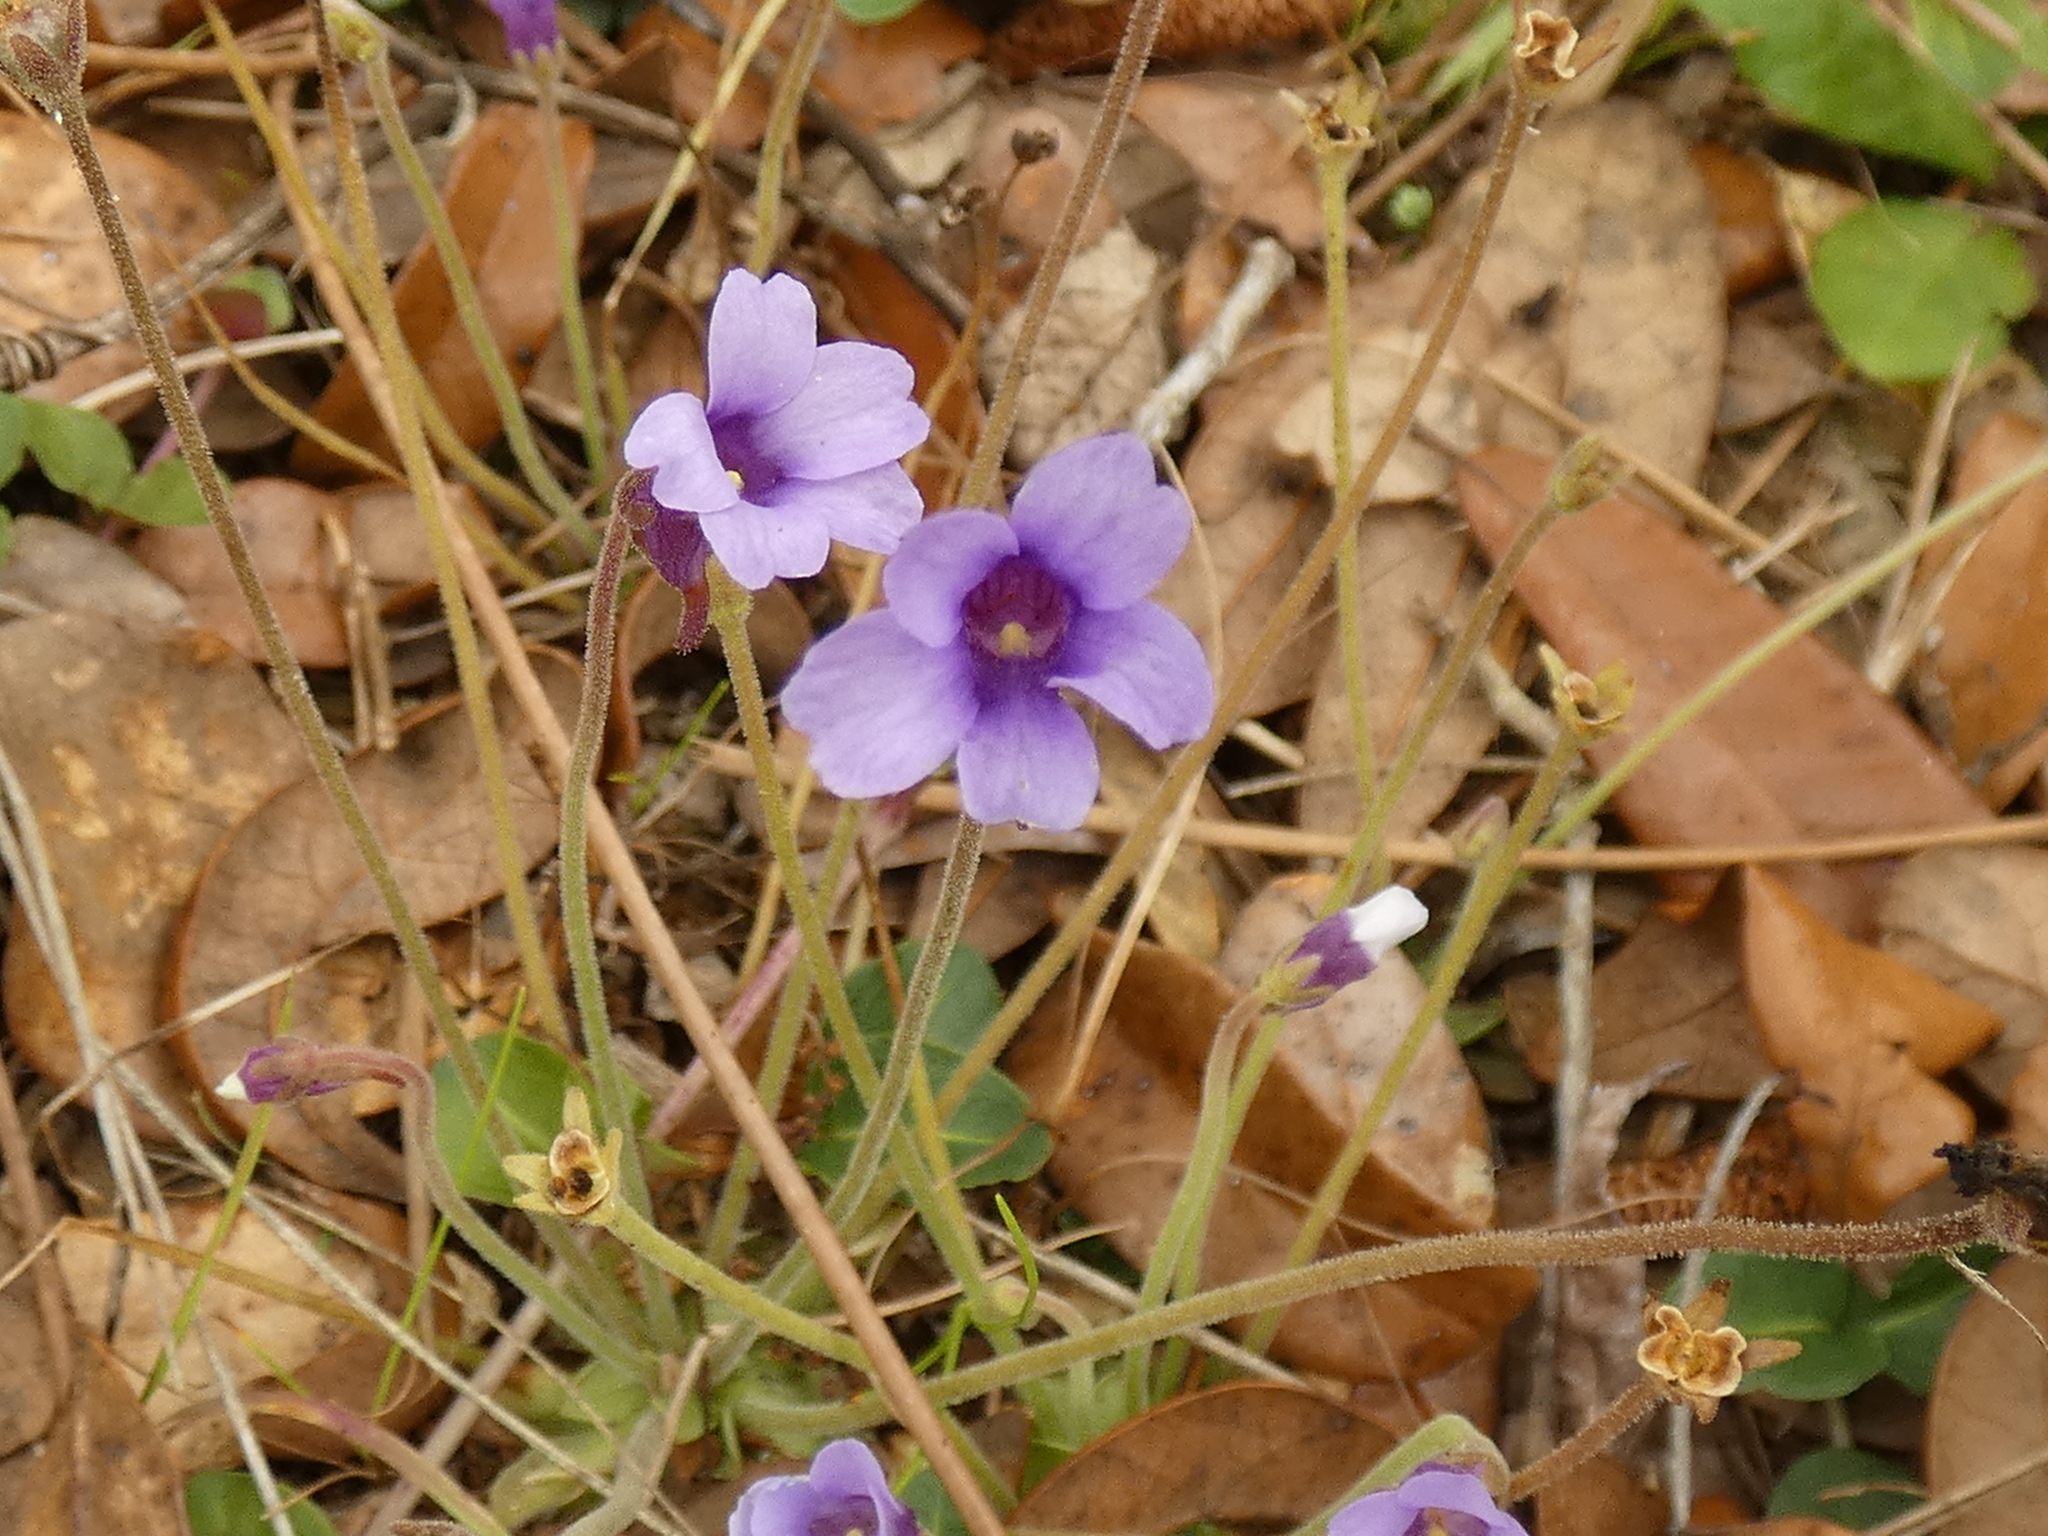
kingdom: Plantae
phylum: Tracheophyta
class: Magnoliopsida
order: Lamiales
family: Lentibulariaceae
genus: Pinguicula
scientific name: Pinguicula pumila
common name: Small butterwort
